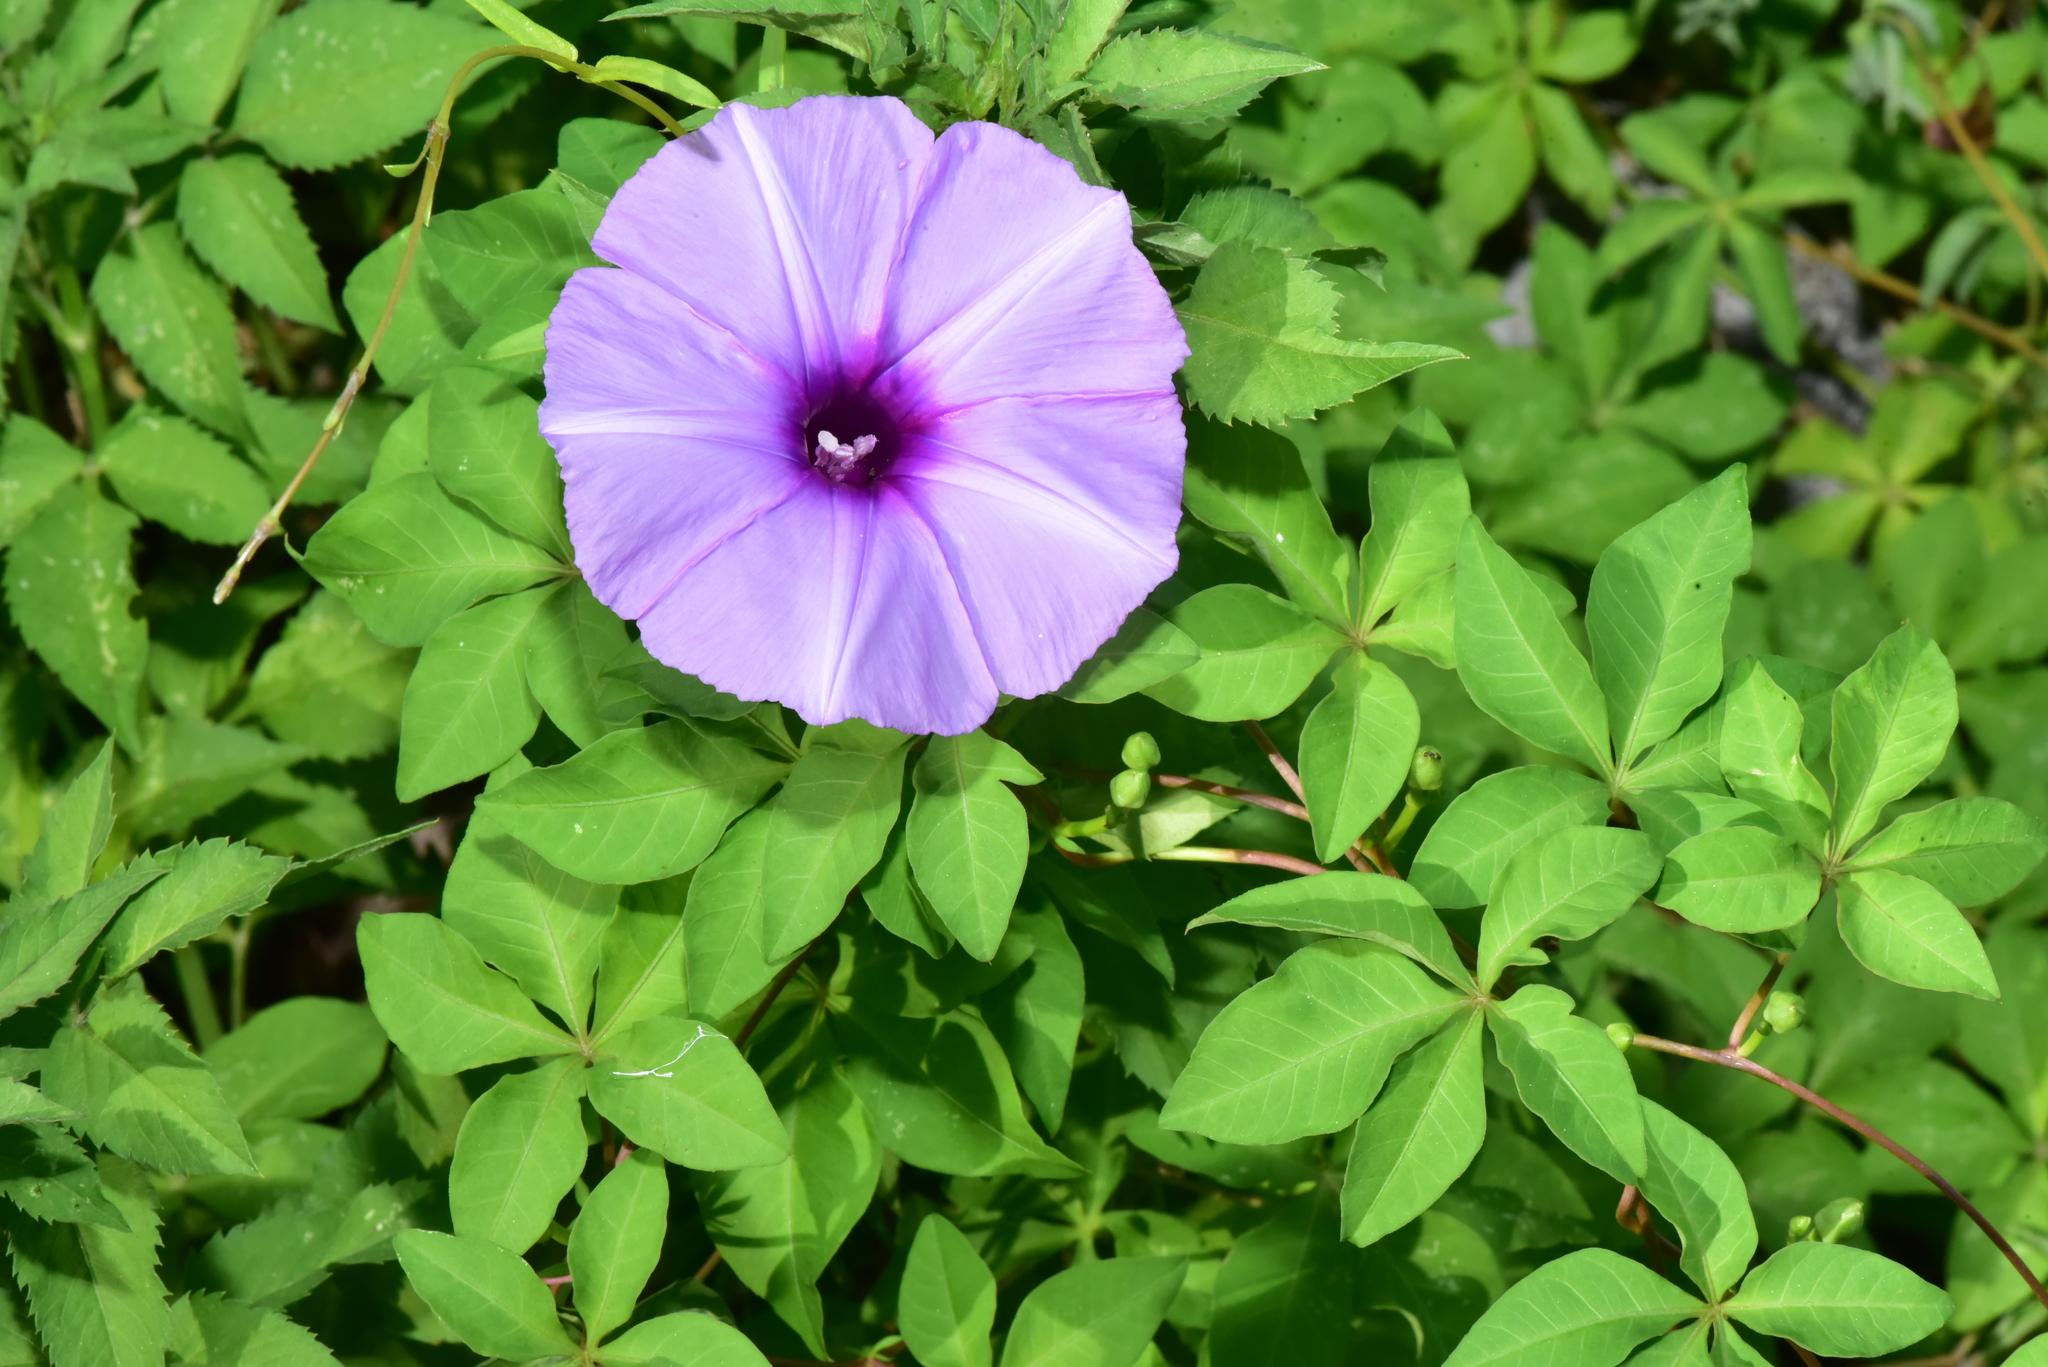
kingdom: Plantae
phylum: Tracheophyta
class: Magnoliopsida
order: Solanales
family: Convolvulaceae
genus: Ipomoea
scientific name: Ipomoea cairica
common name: Mile a minute vine
